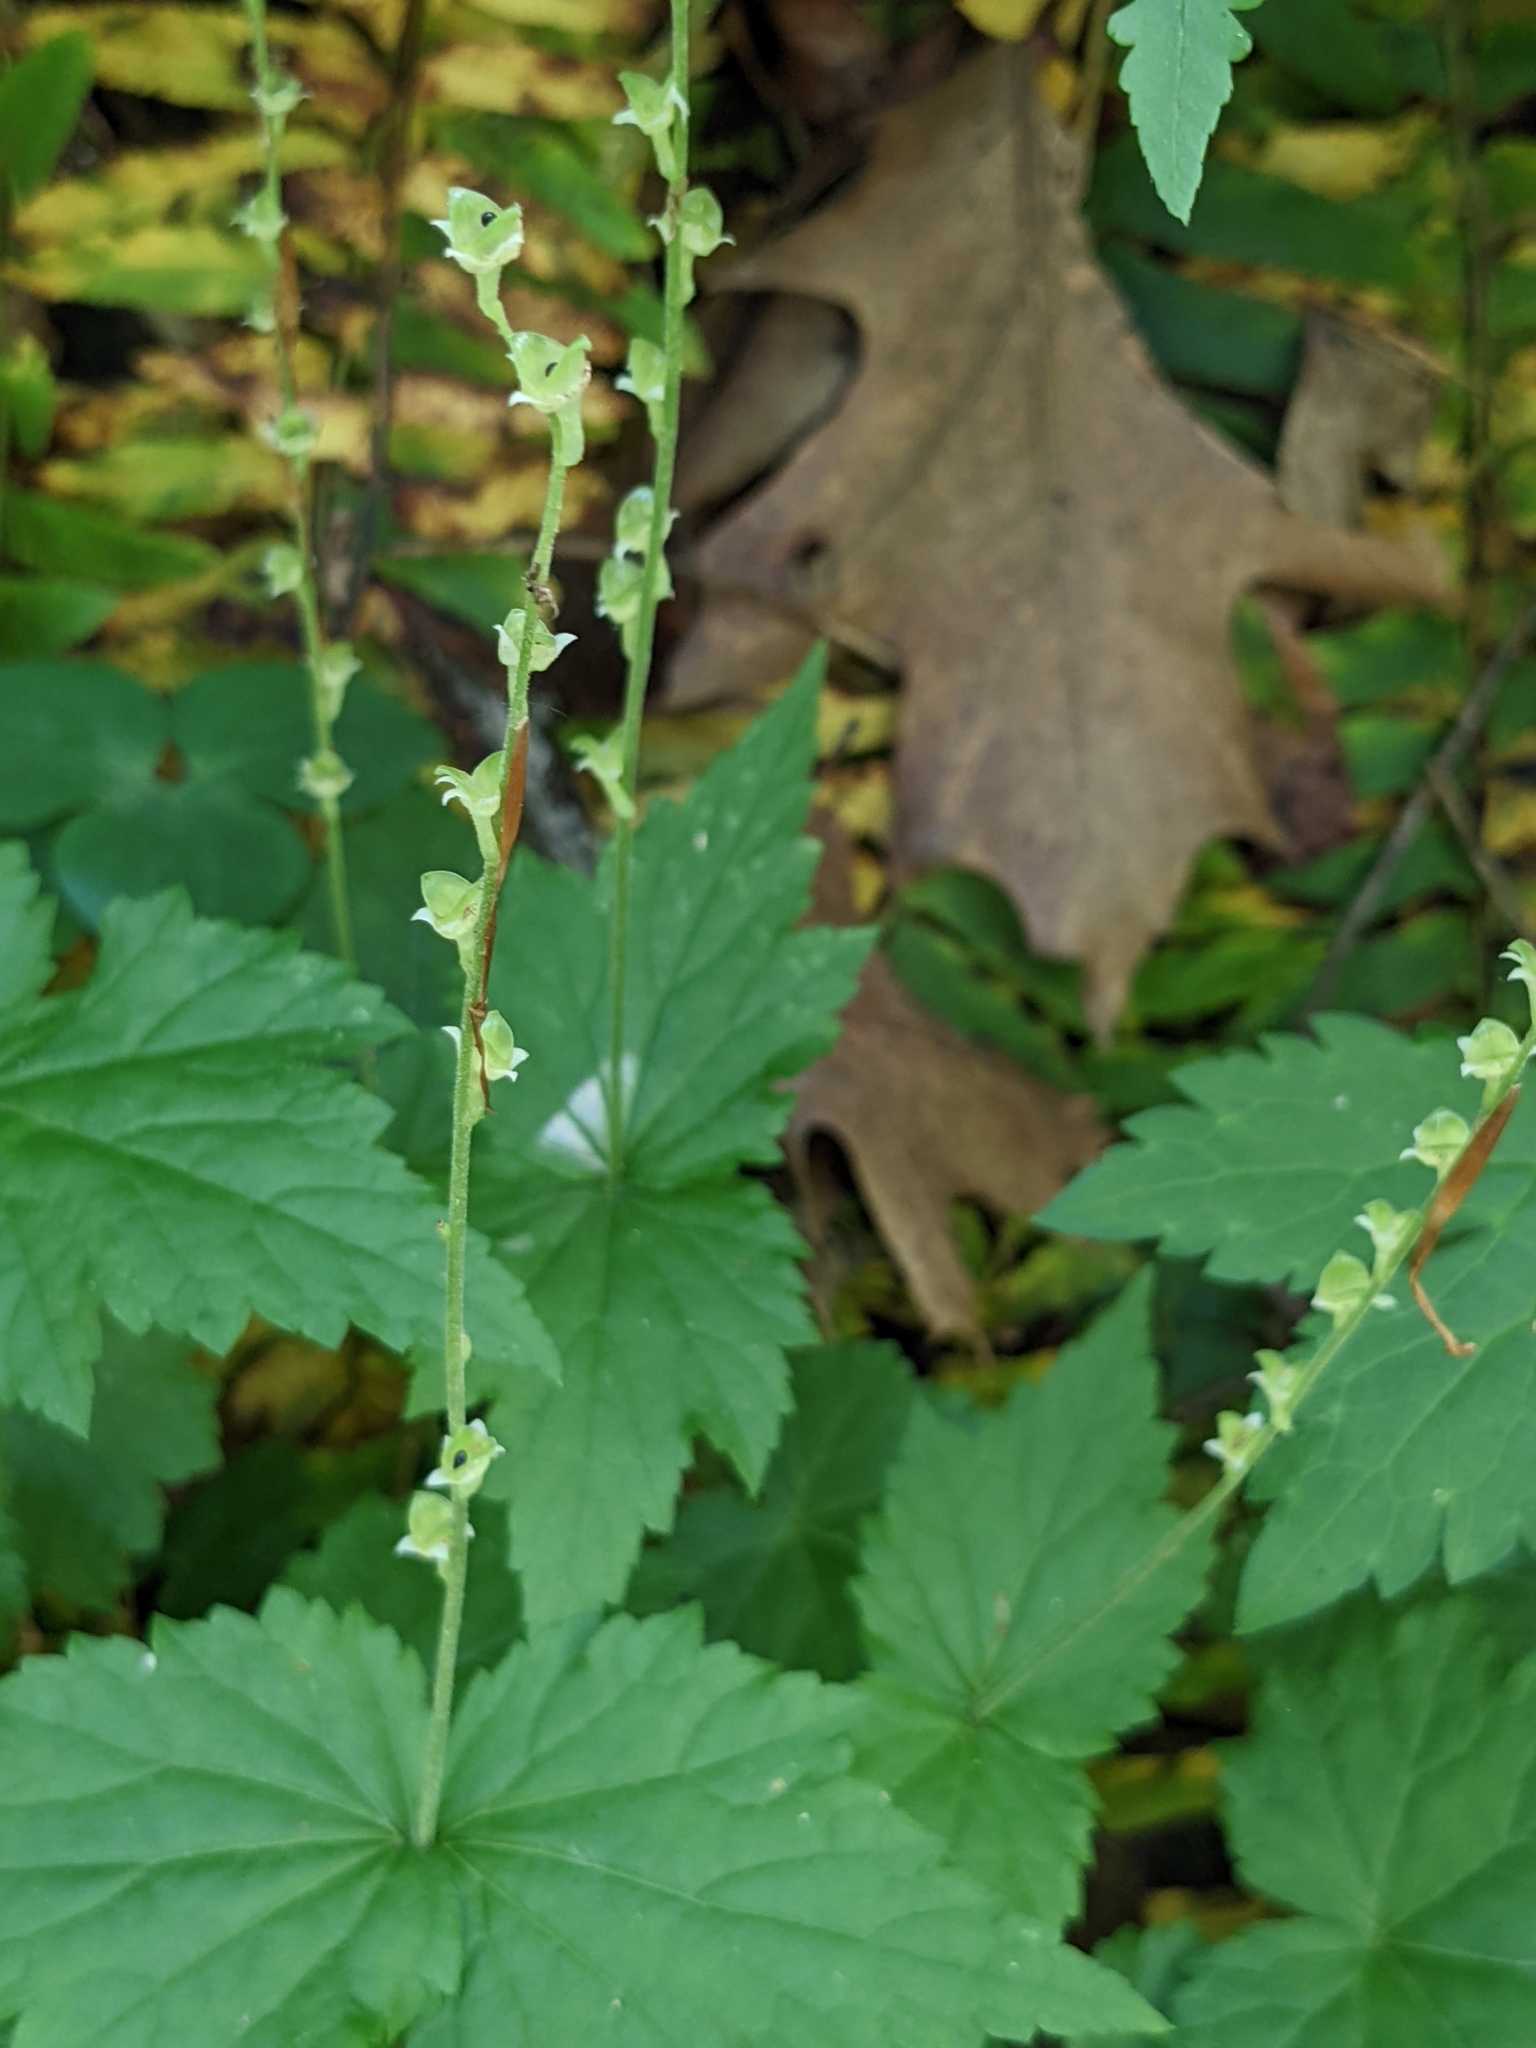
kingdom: Plantae
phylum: Tracheophyta
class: Magnoliopsida
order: Saxifragales
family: Saxifragaceae
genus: Mitella
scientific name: Mitella diphylla
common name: Coolwort
